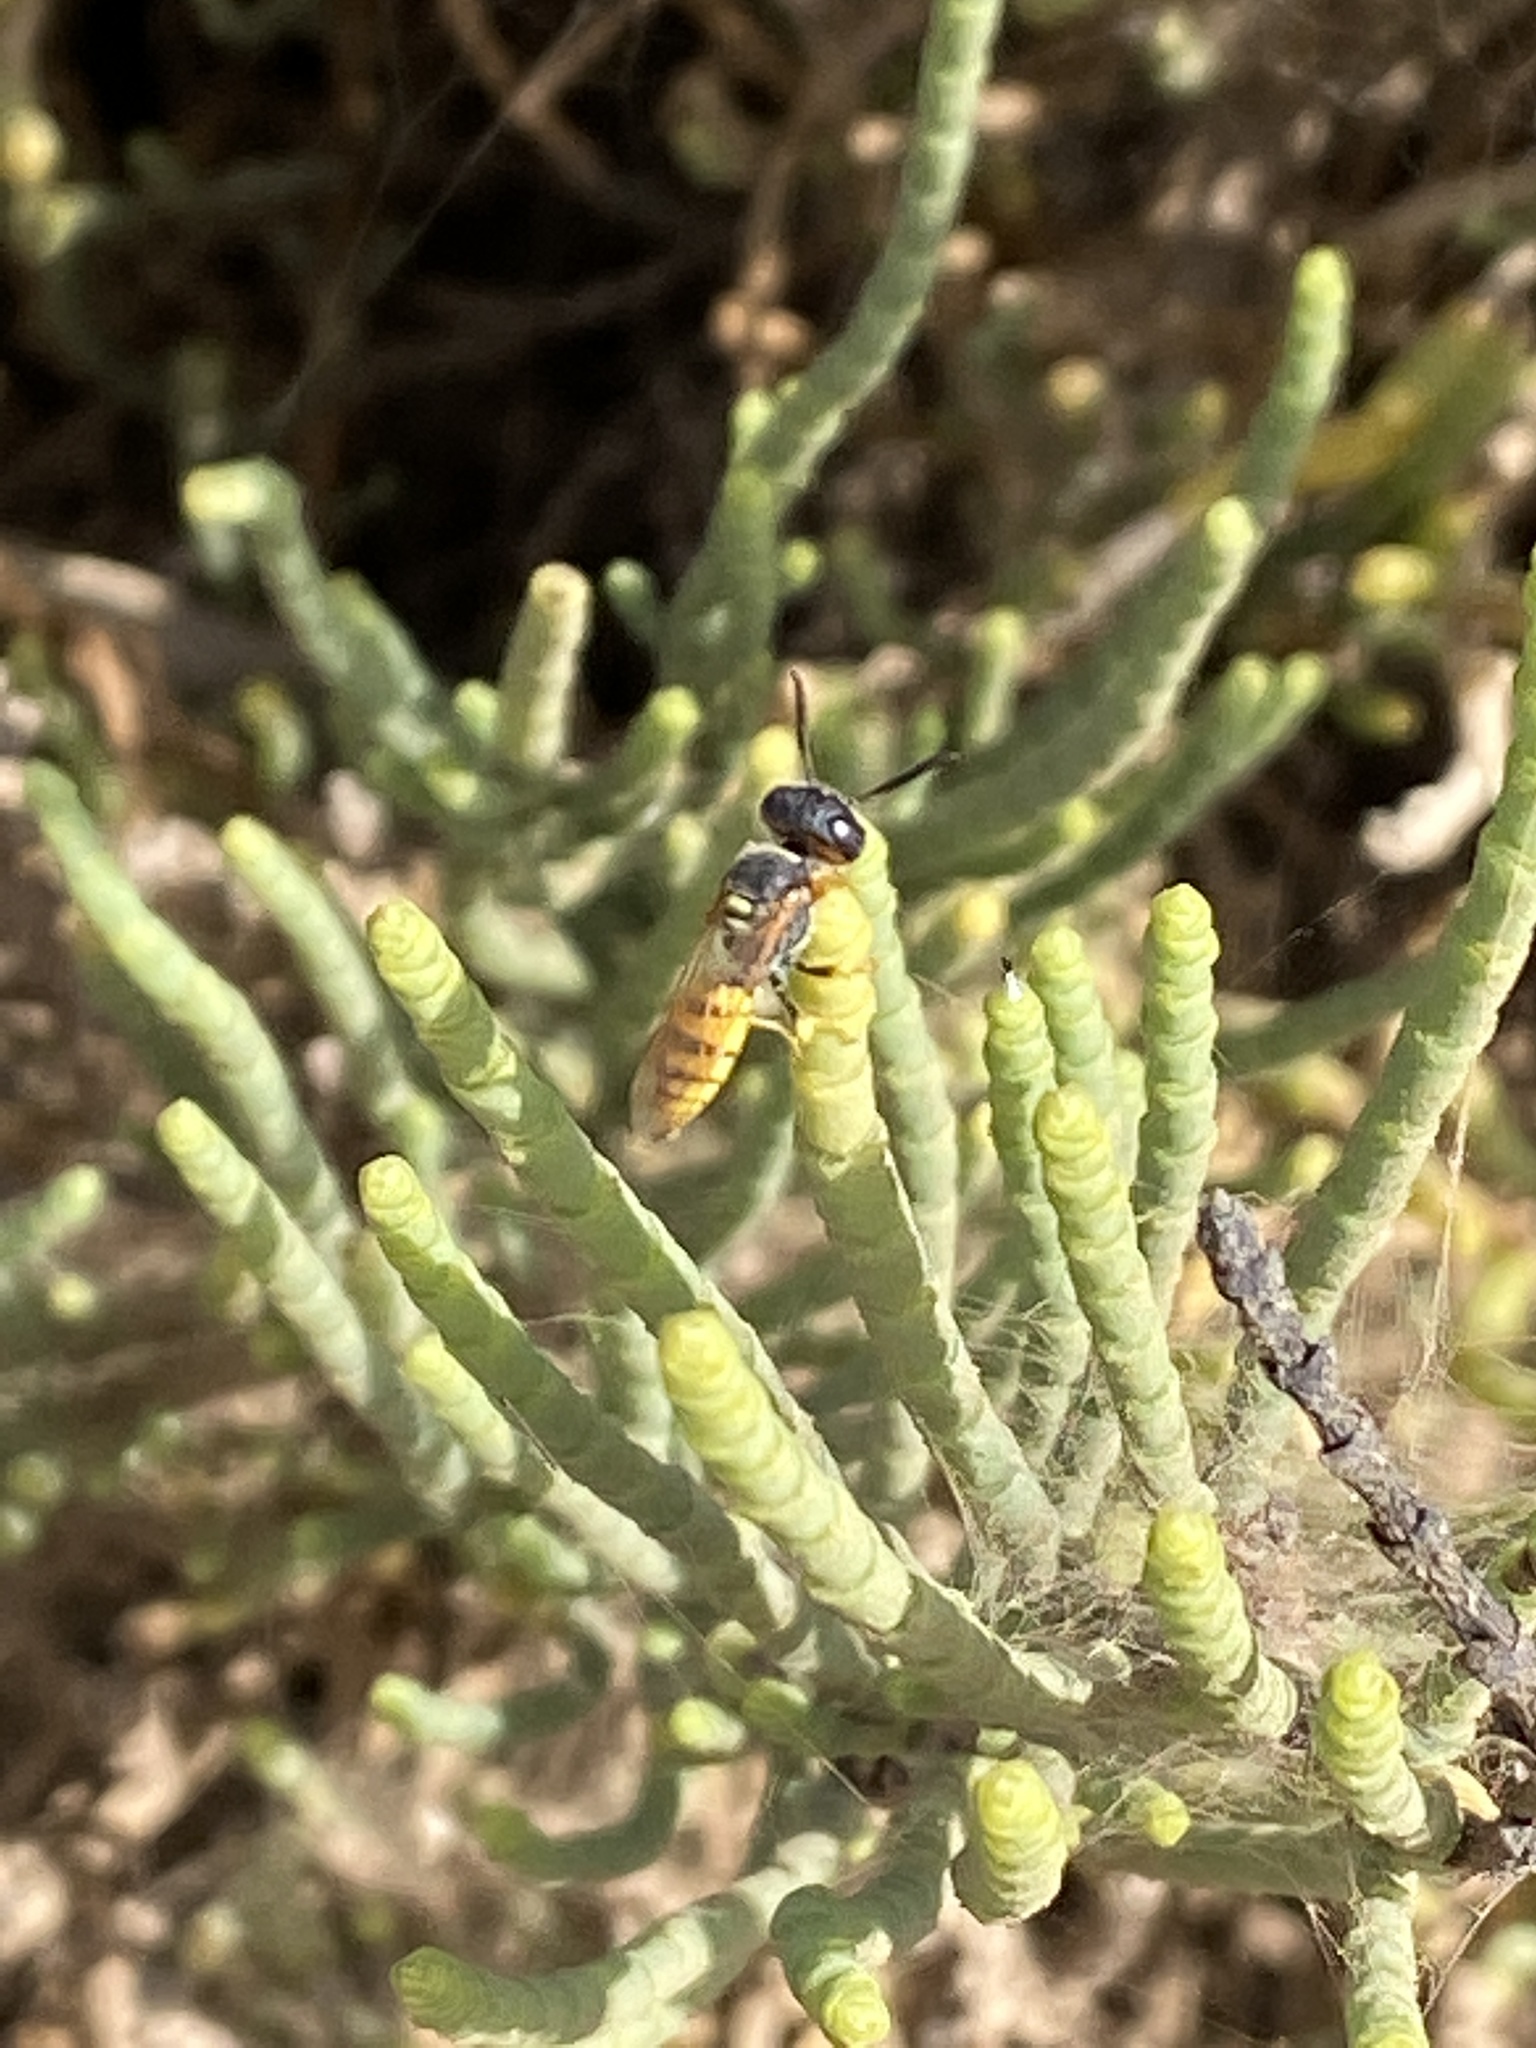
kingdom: Animalia
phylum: Arthropoda
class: Insecta
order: Hymenoptera
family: Crabronidae
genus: Philanthus
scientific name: Philanthus triangulum
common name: Bee wolf
